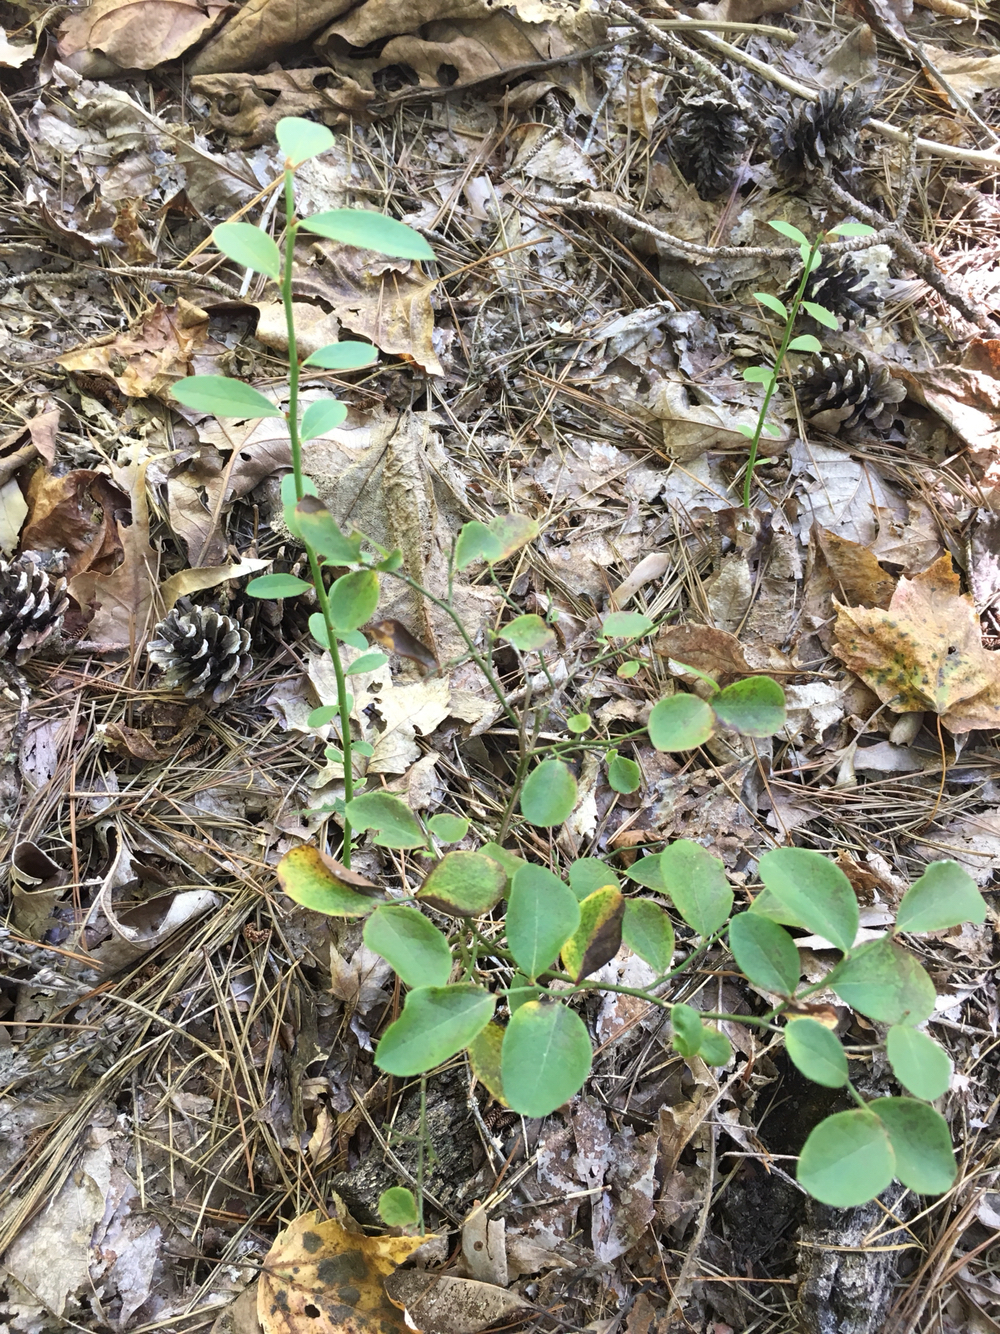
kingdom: Plantae
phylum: Tracheophyta
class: Magnoliopsida
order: Ericales
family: Ericaceae
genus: Vaccinium
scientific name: Vaccinium pallidum
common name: Blue ridge blueberry
